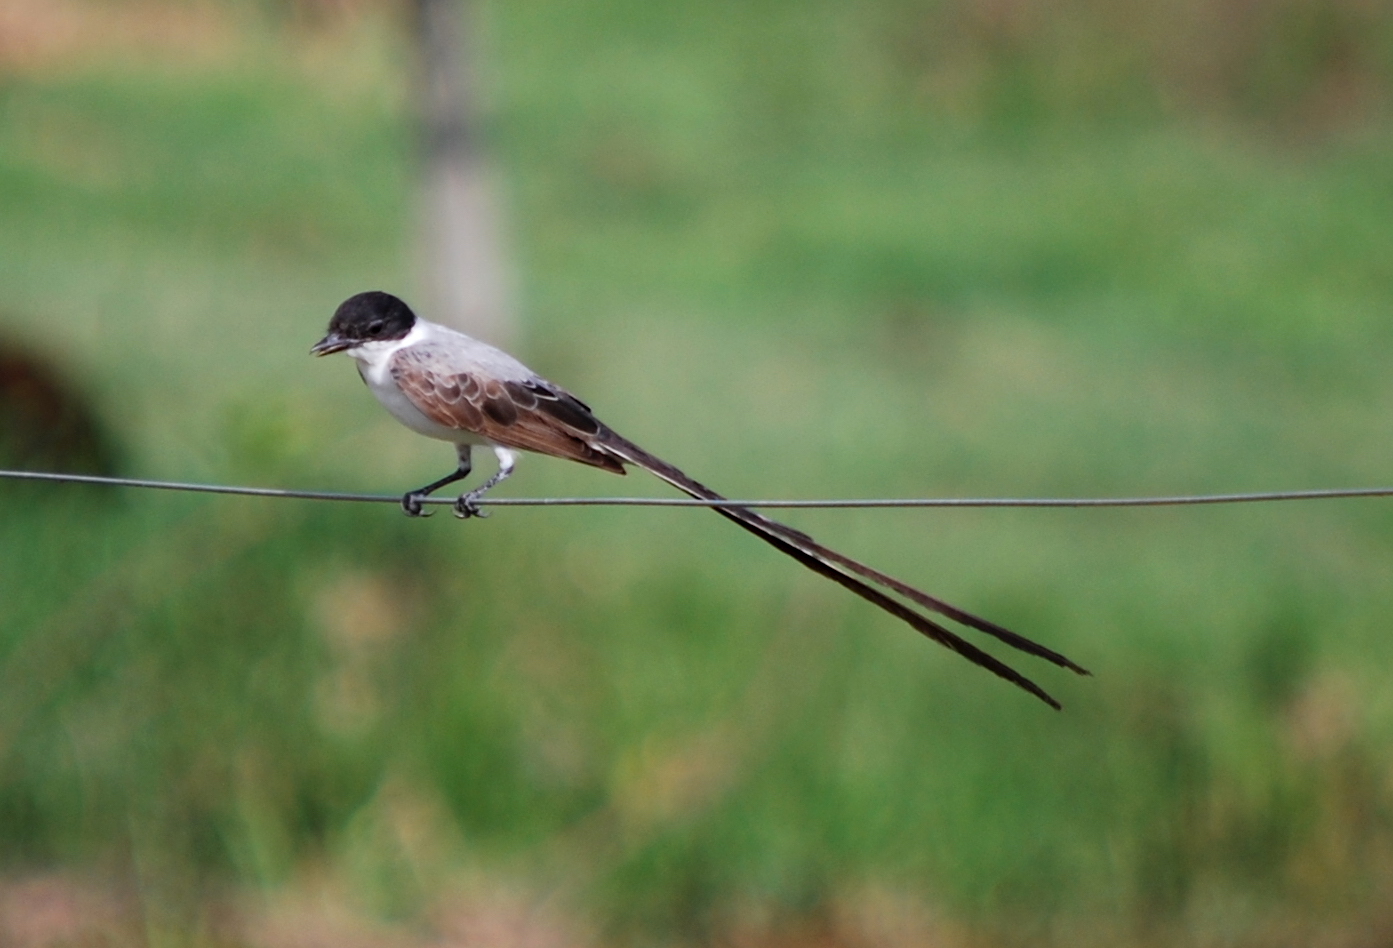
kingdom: Animalia
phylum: Chordata
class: Aves
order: Passeriformes
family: Tyrannidae
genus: Tyrannus
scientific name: Tyrannus savana
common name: Fork-tailed flycatcher
